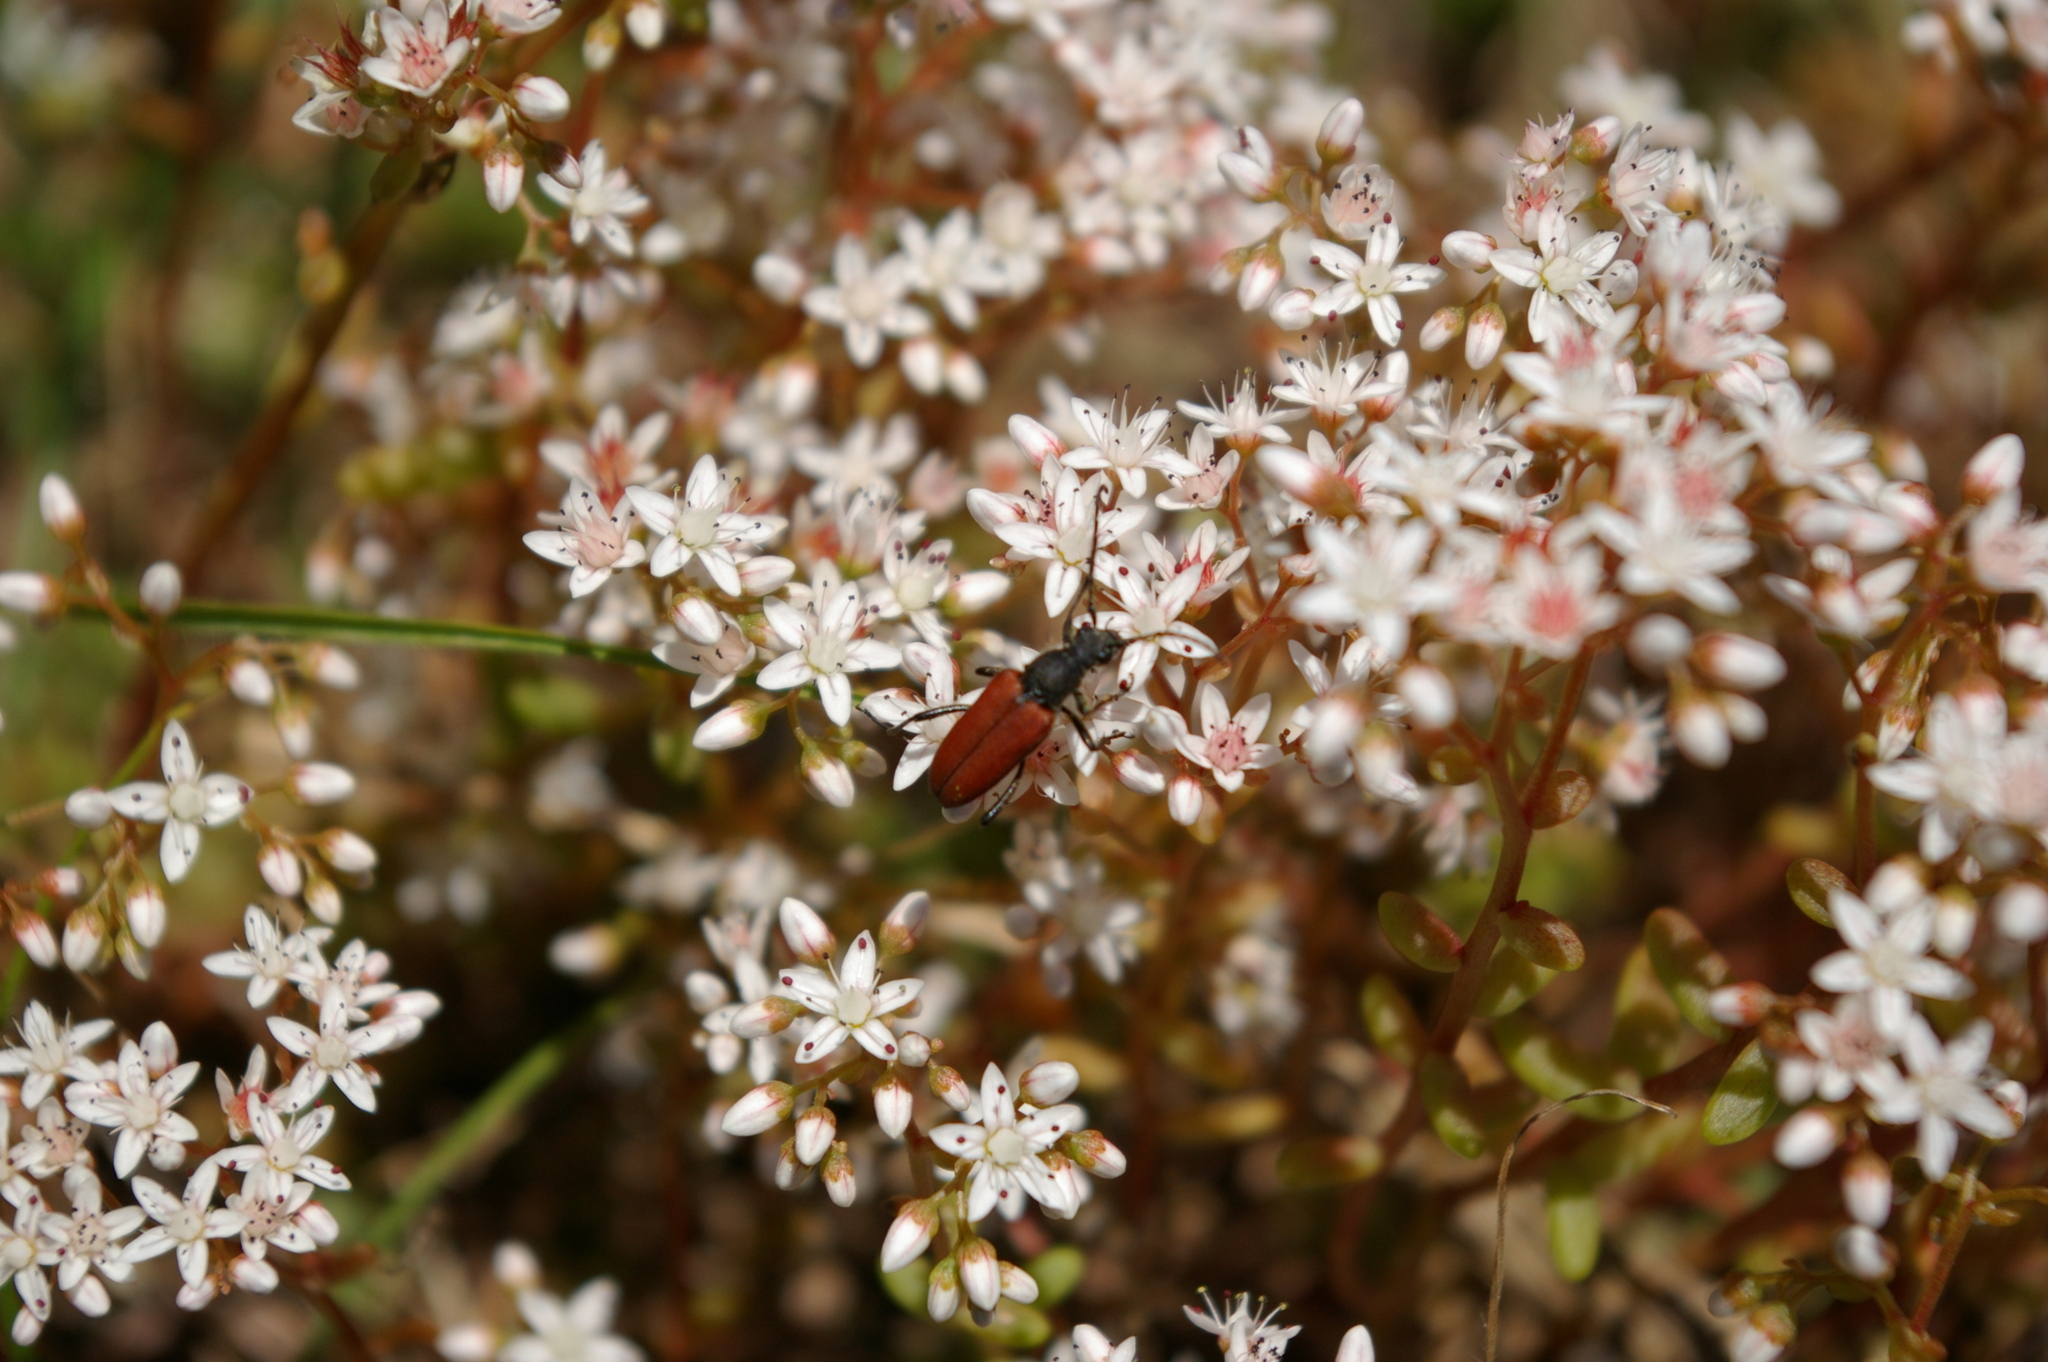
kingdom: Animalia
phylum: Arthropoda
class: Insecta
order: Coleoptera
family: Cerambycidae
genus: Anastrangalia
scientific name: Anastrangalia sanguinolenta
